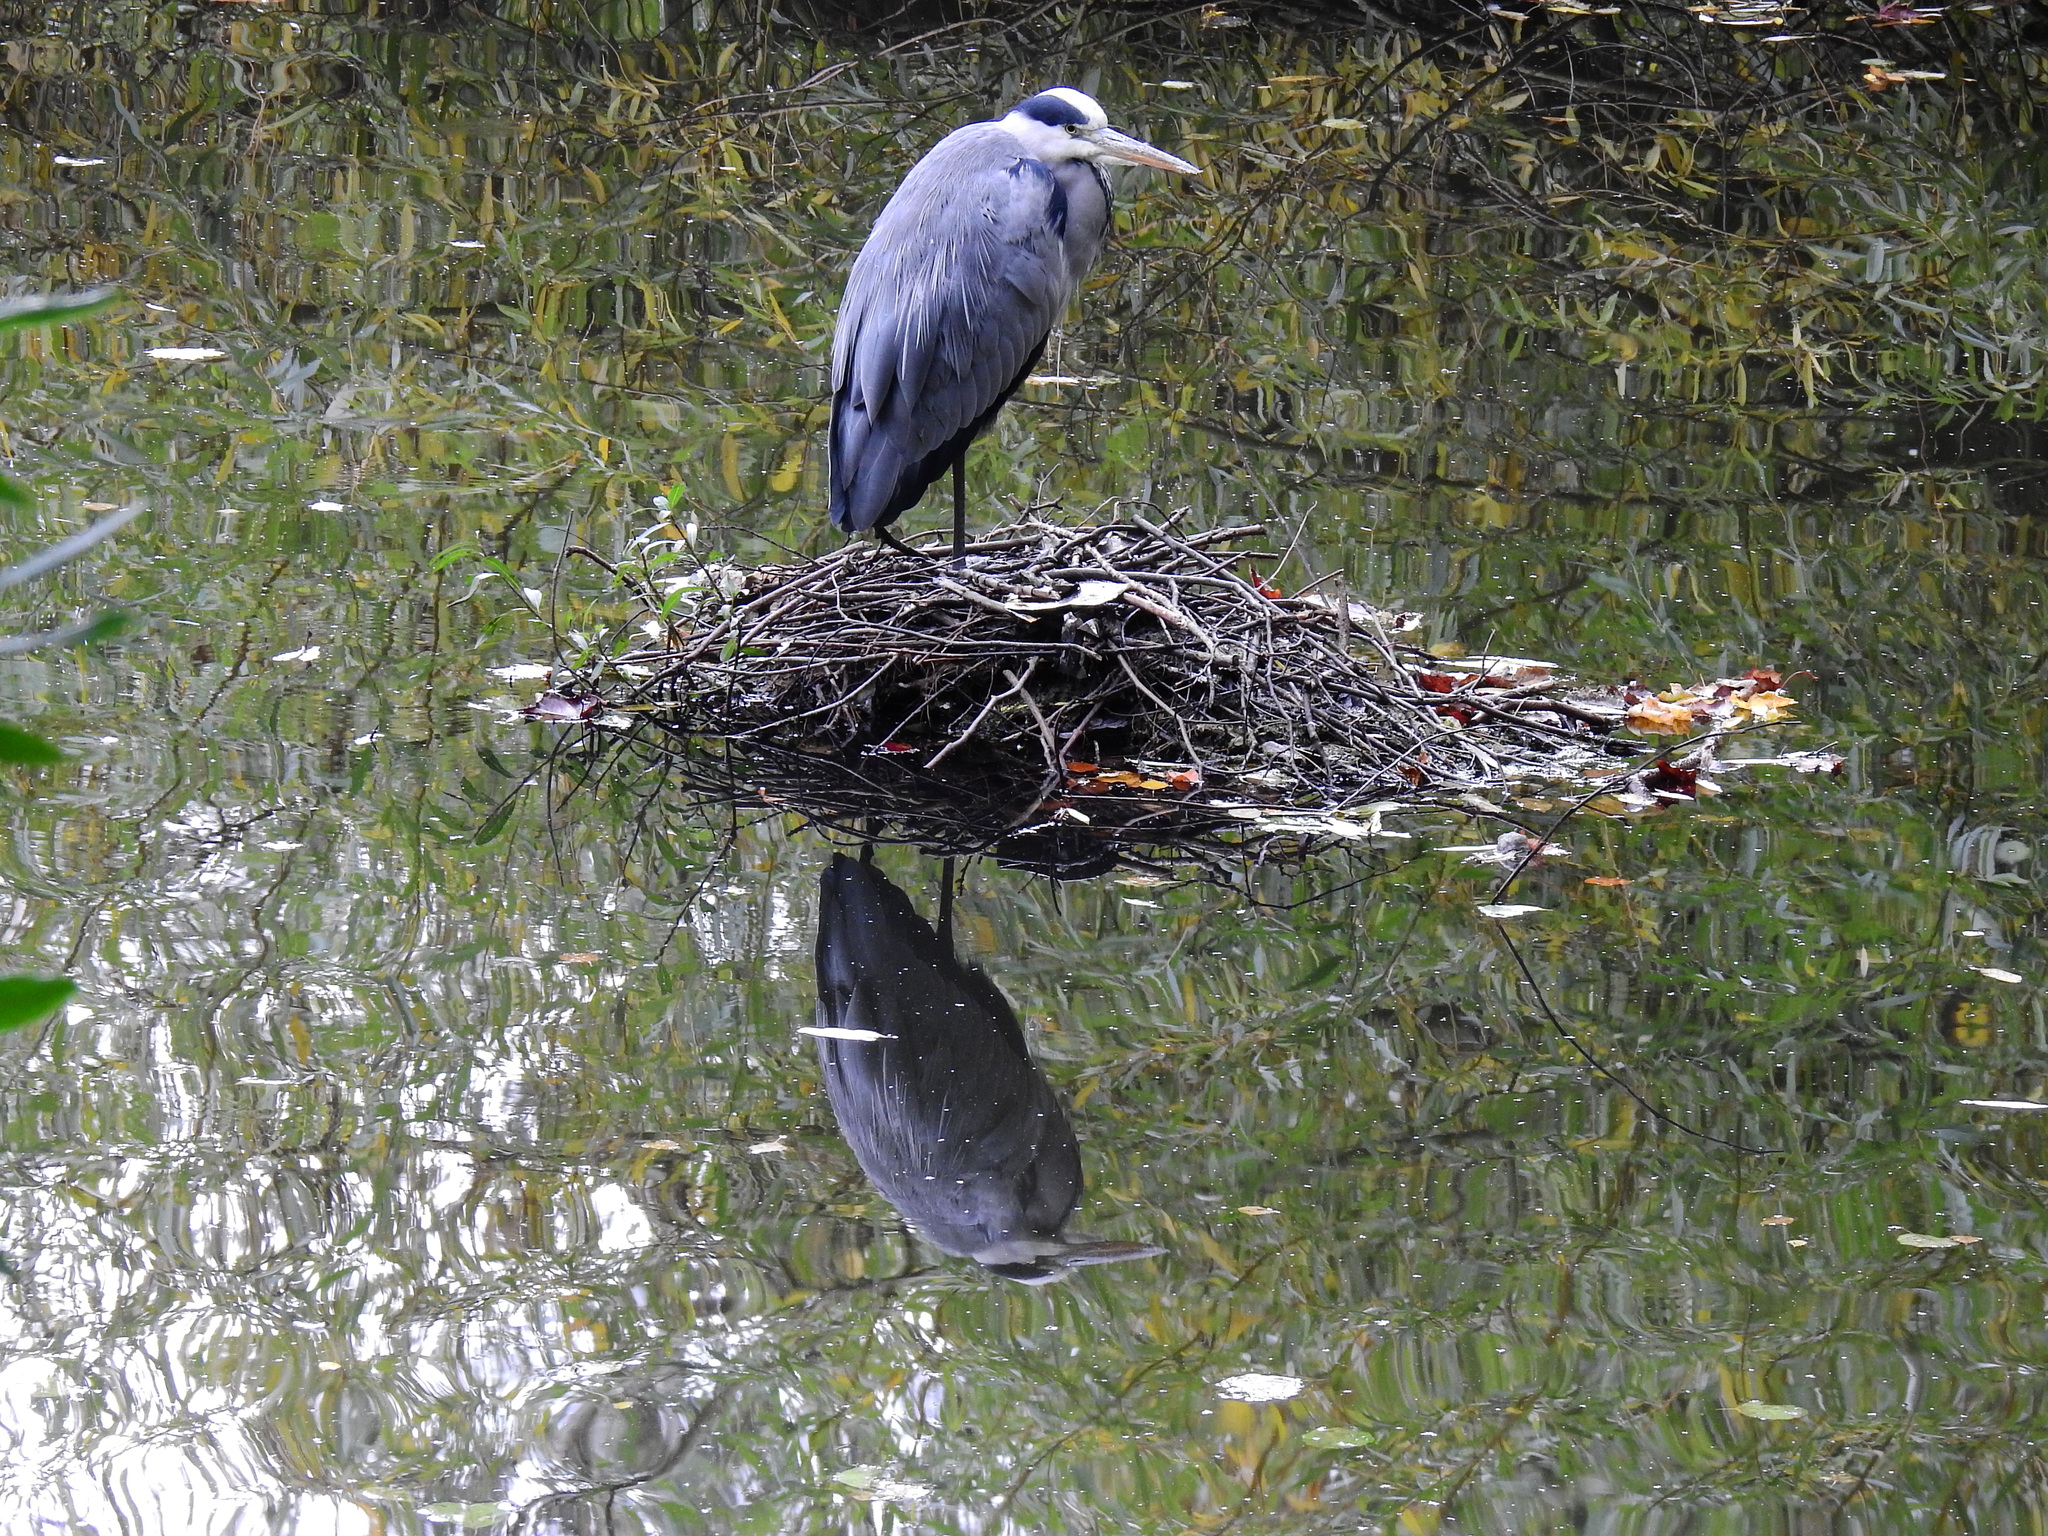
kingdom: Animalia
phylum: Chordata
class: Aves
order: Pelecaniformes
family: Ardeidae
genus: Ardea
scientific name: Ardea cinerea
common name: Grey heron
